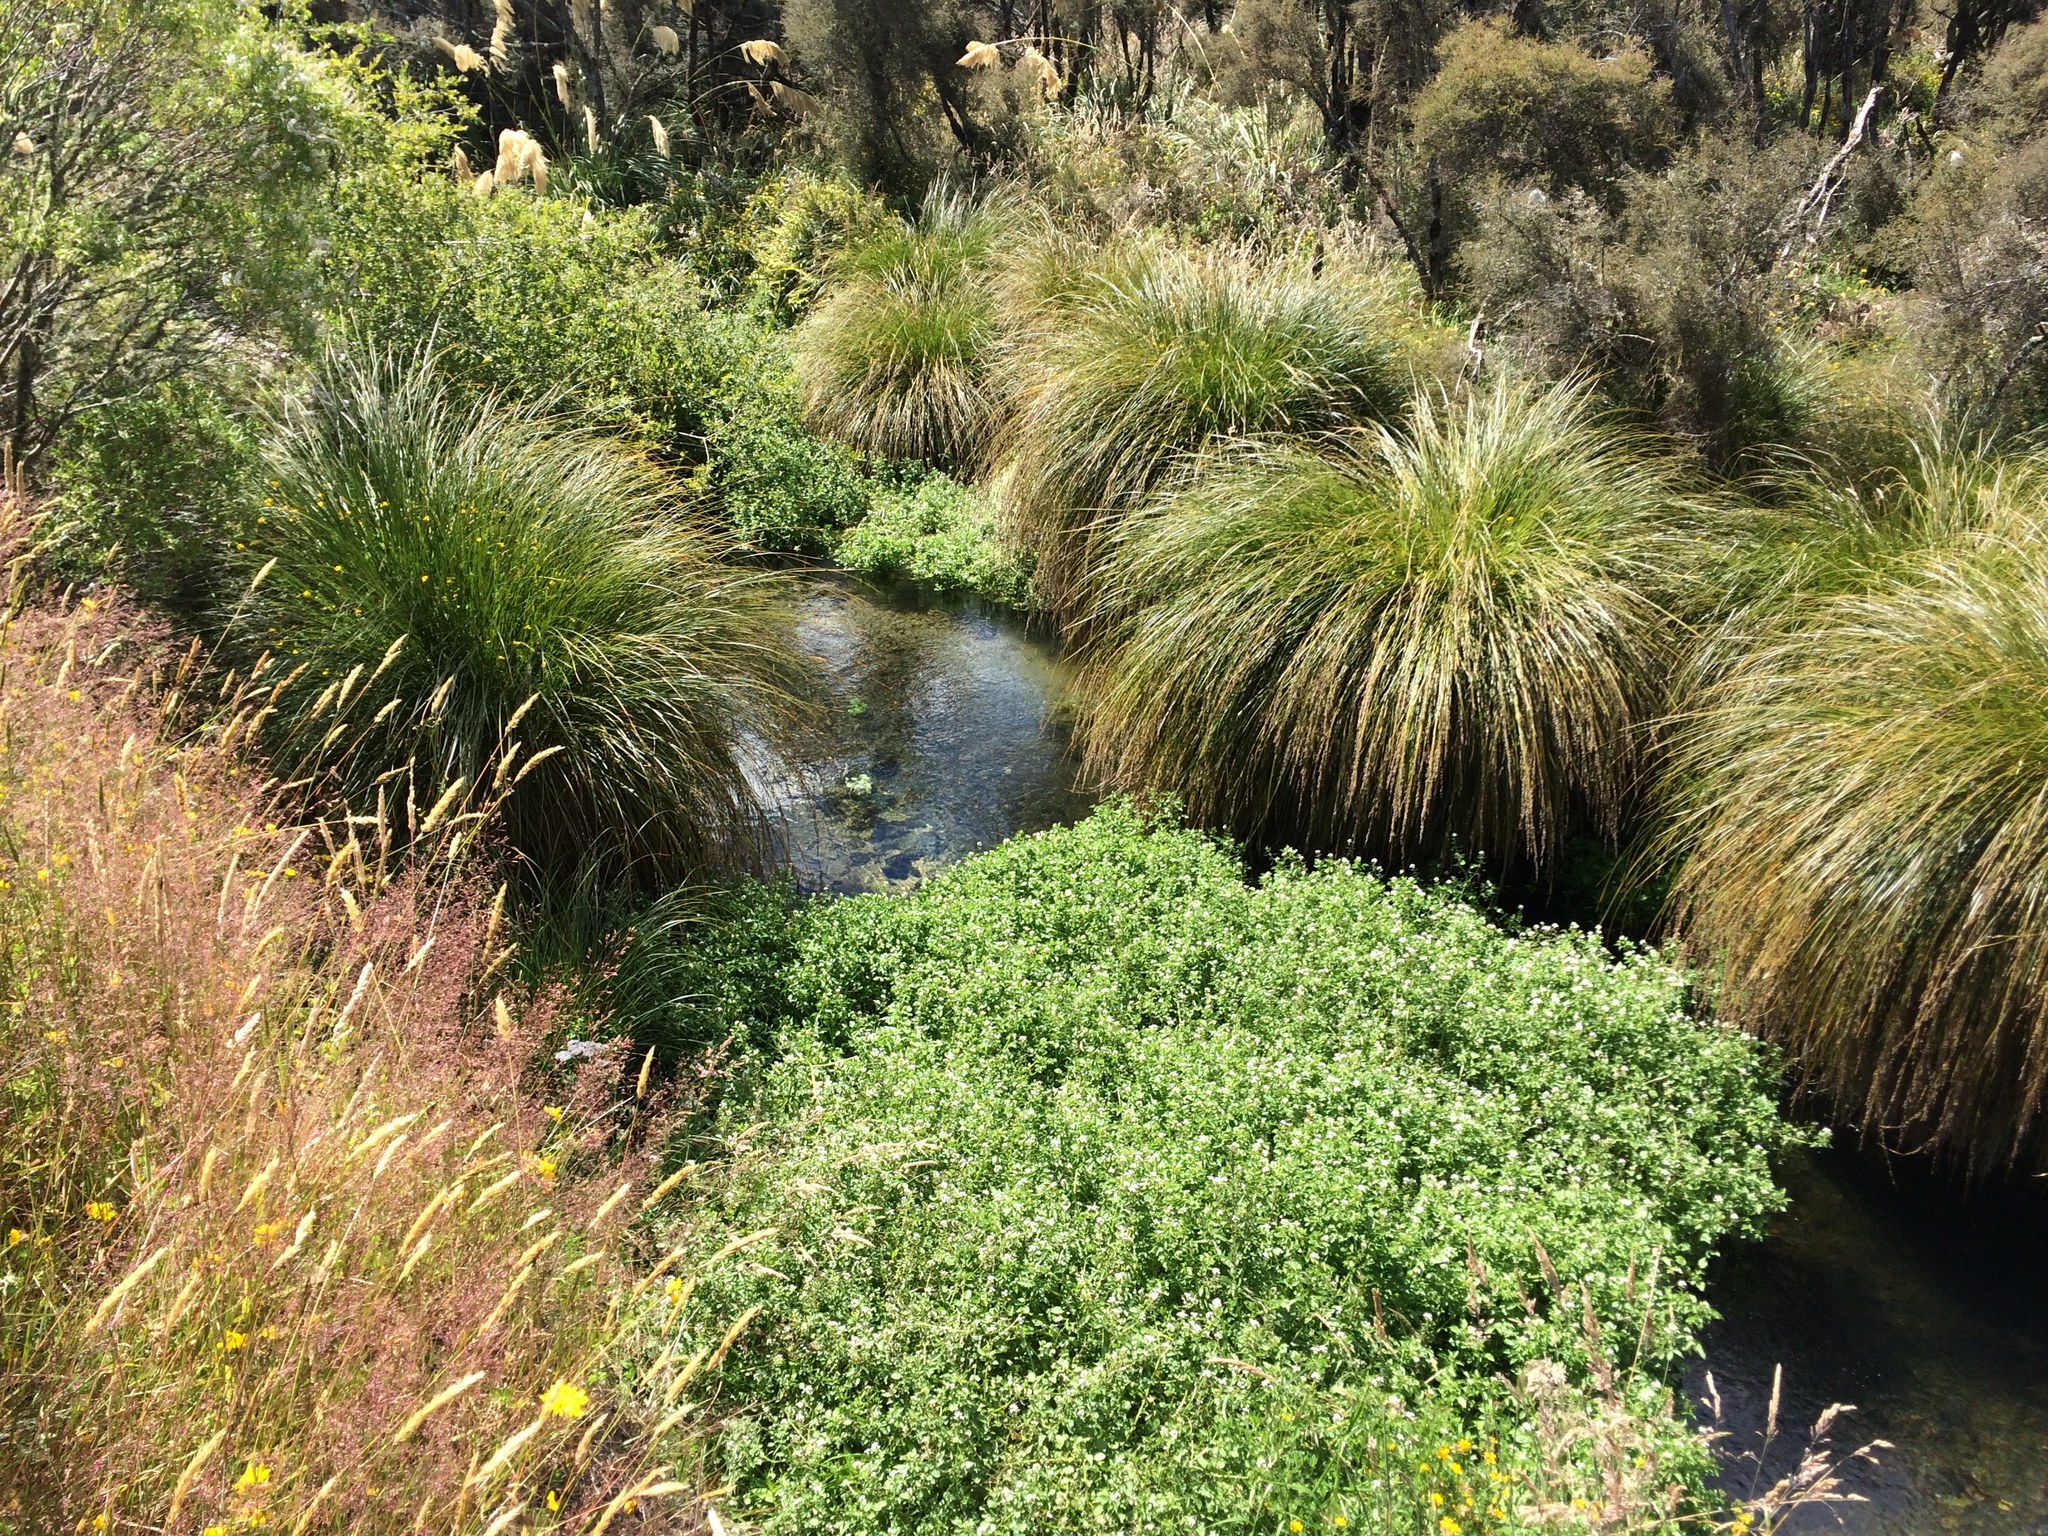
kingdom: Plantae
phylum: Tracheophyta
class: Liliopsida
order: Poales
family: Cyperaceae
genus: Carex
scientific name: Carex secta
